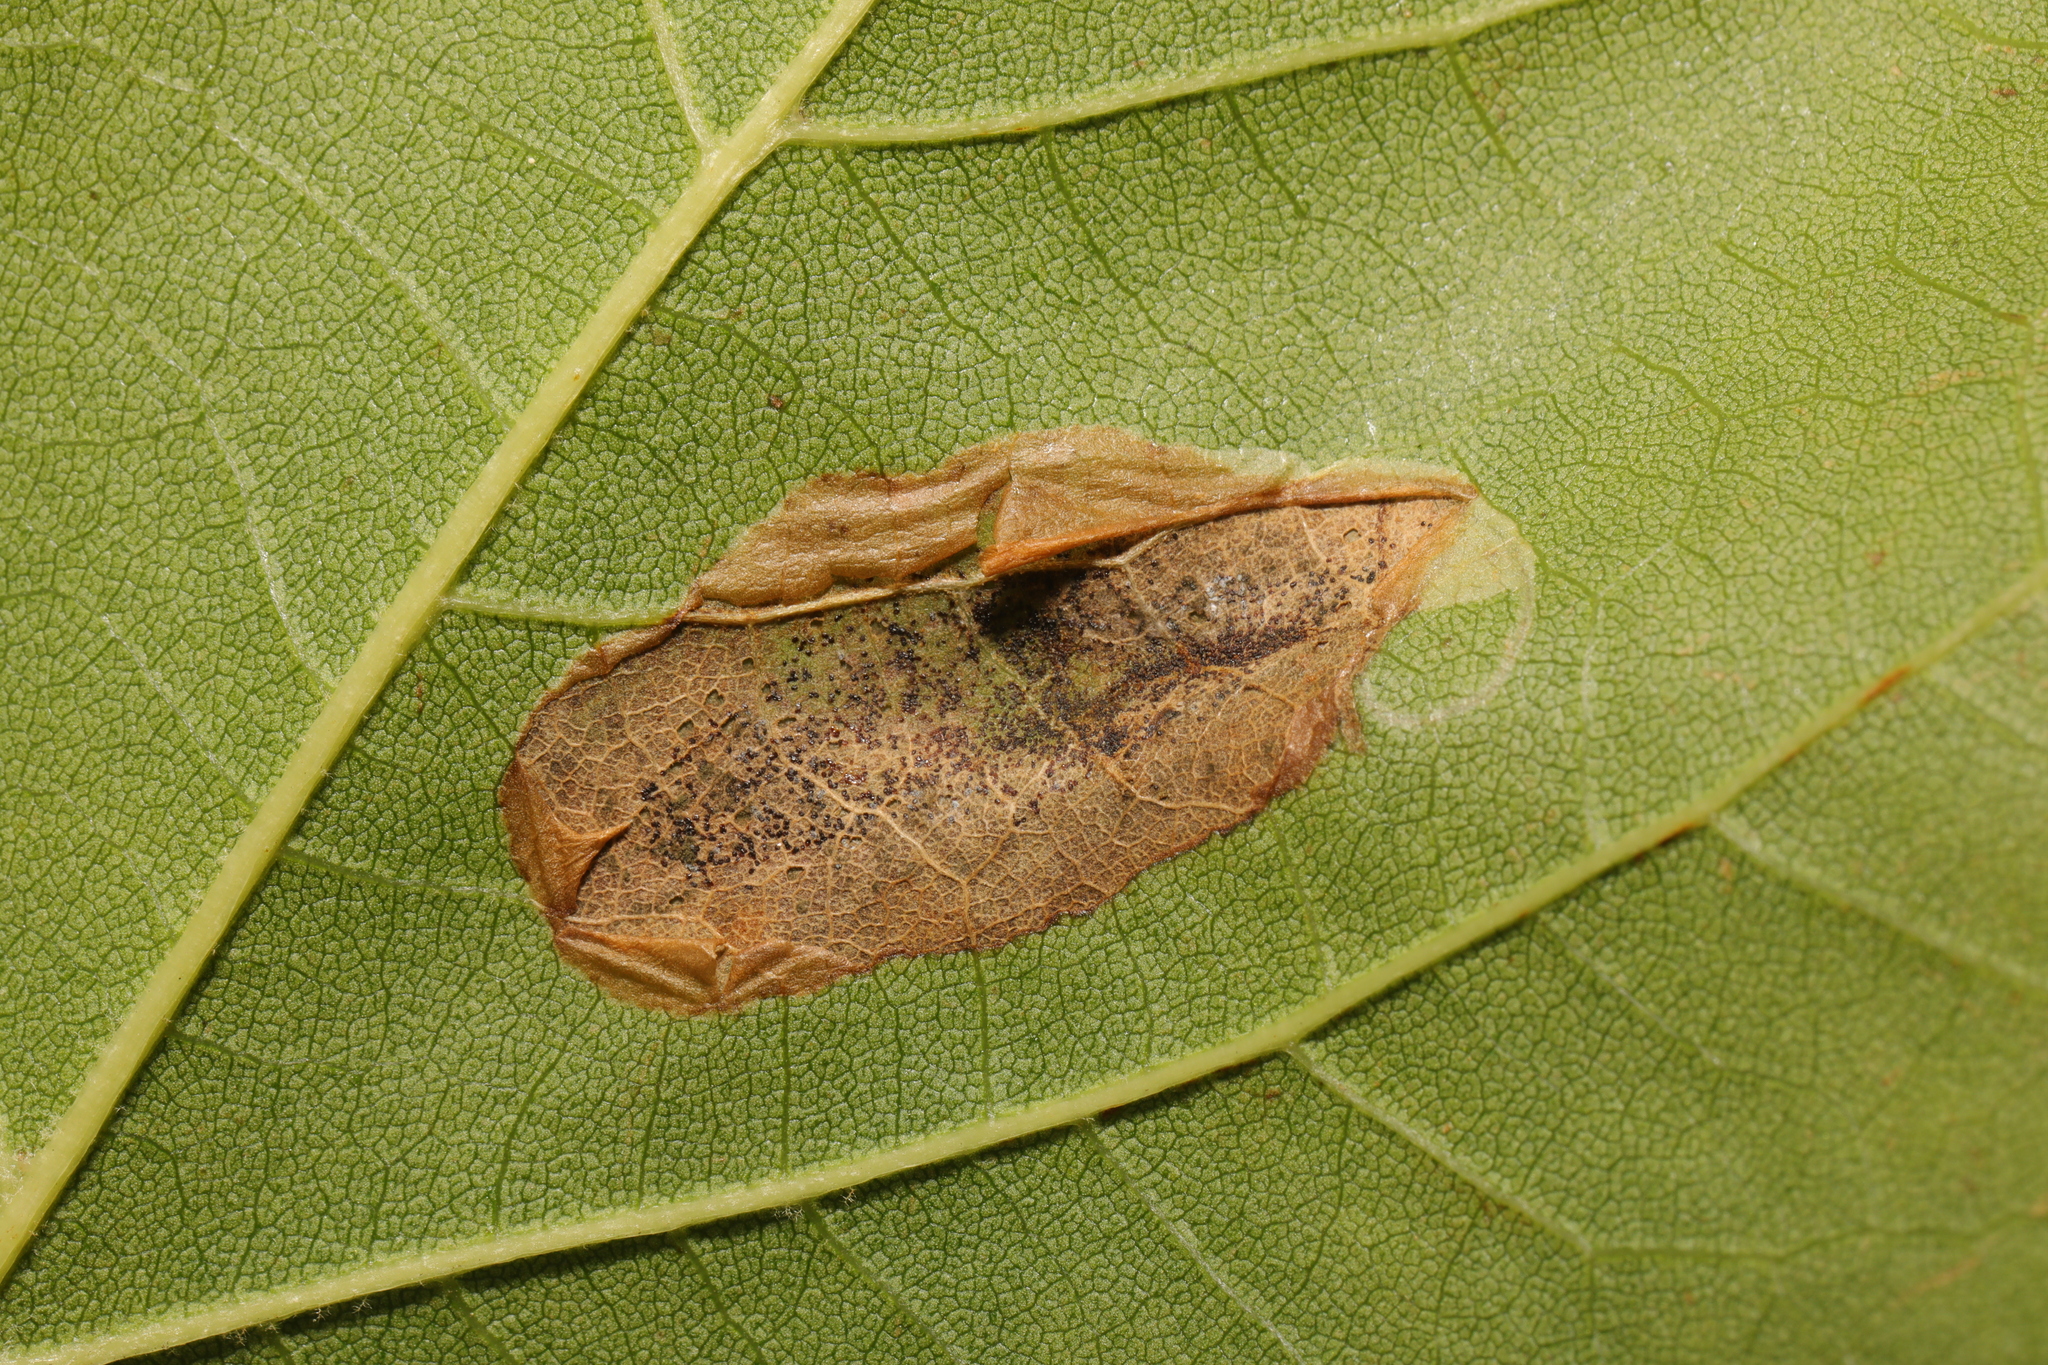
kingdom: Animalia
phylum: Arthropoda
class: Insecta
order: Lepidoptera
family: Gracillariidae
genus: Phyllonorycter
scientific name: Phyllonorycter platani
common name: London midget
